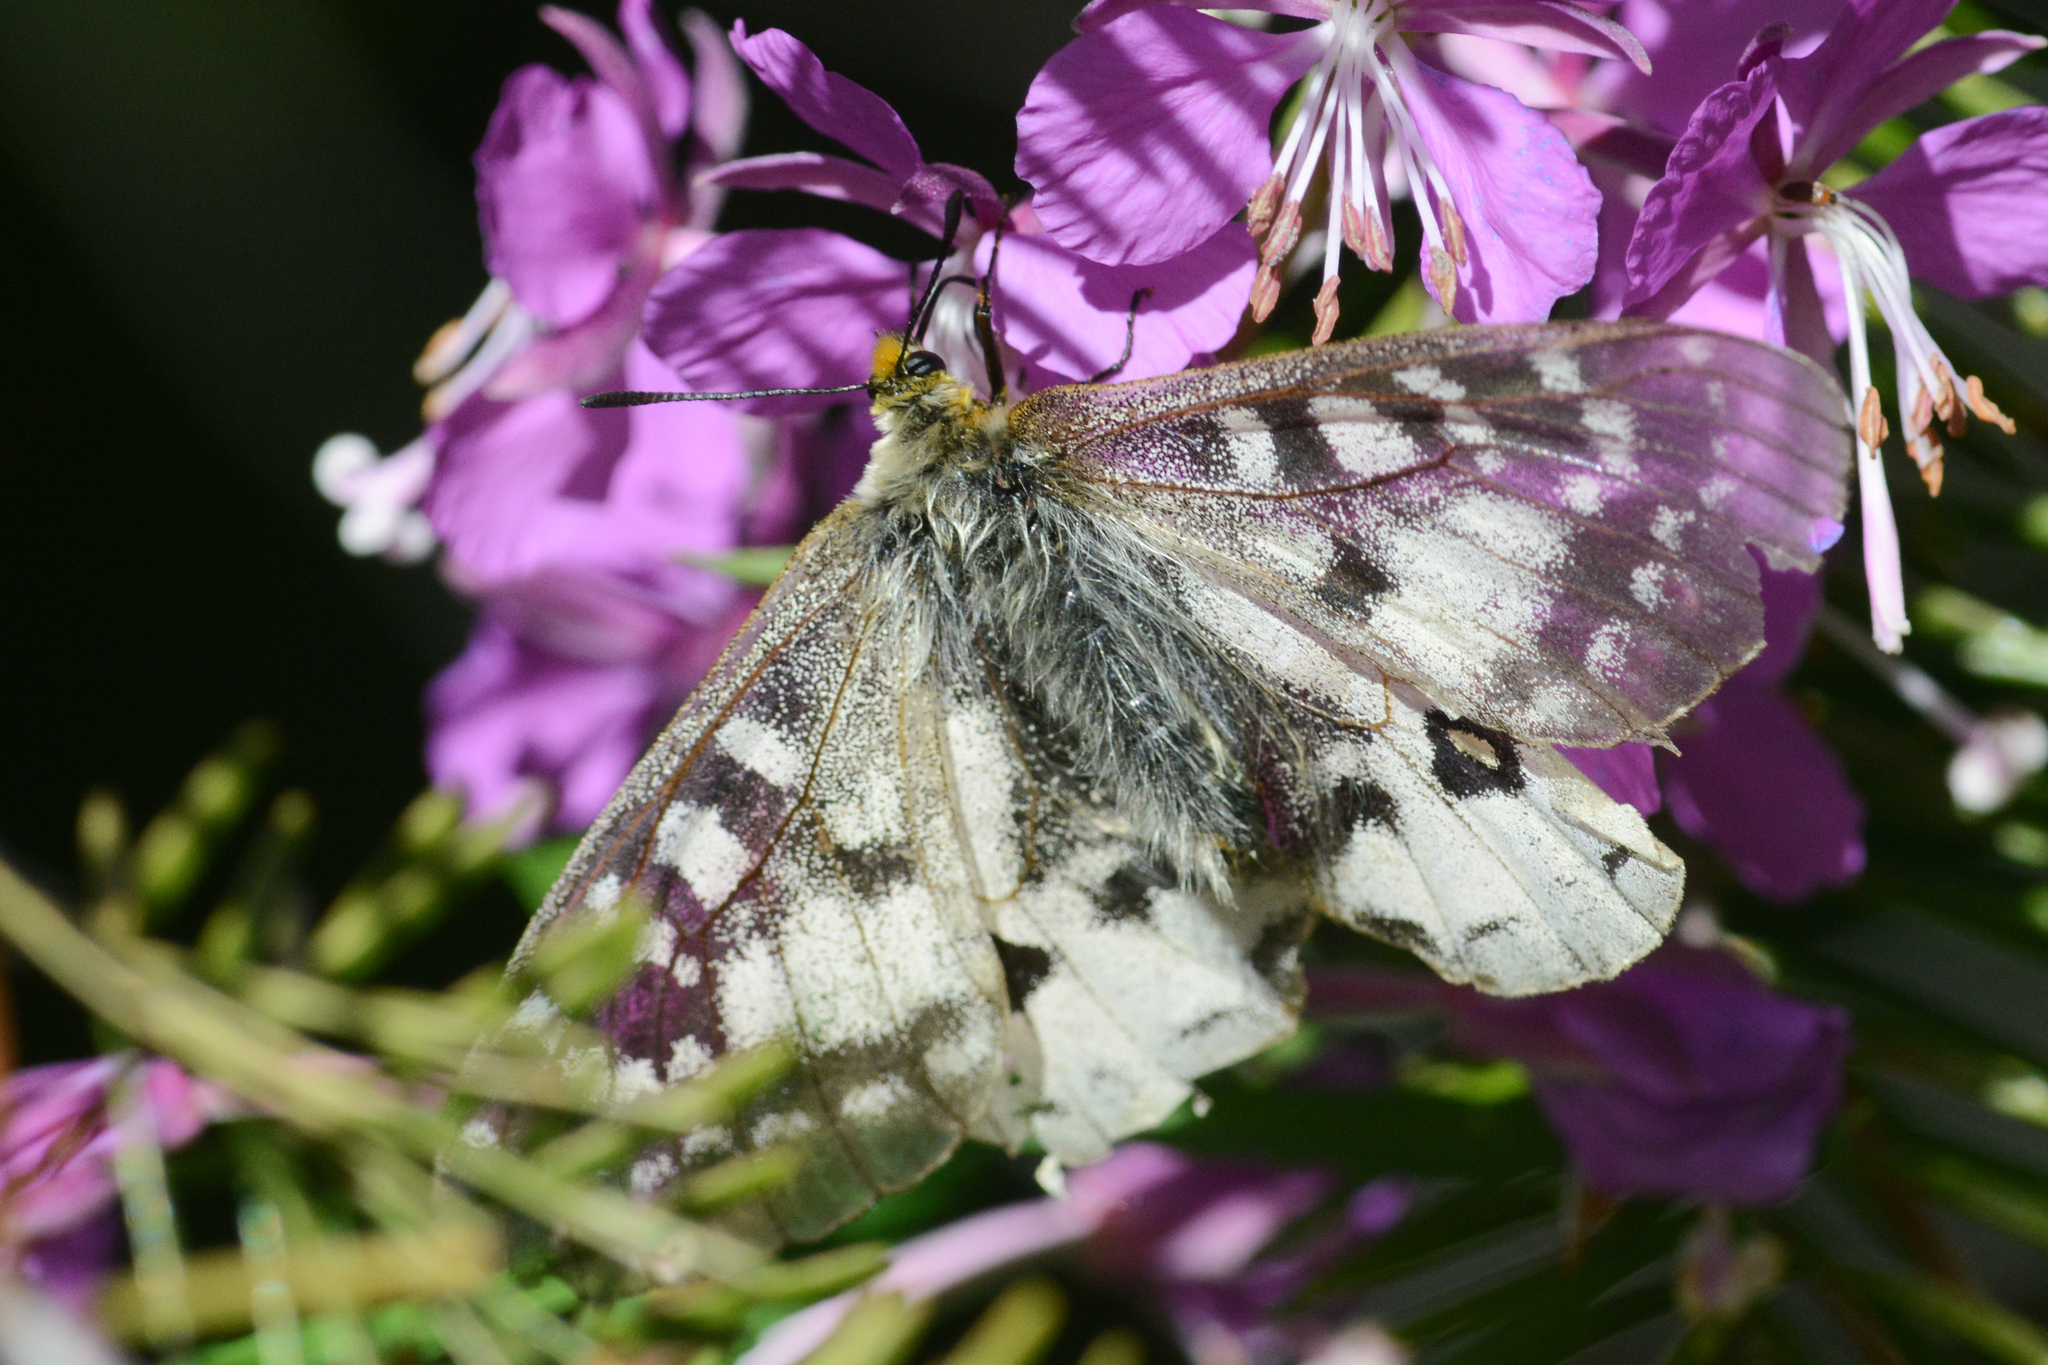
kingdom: Animalia
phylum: Arthropoda
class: Insecta
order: Lepidoptera
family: Papilionidae
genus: Parnassius
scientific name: Parnassius clodius
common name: American apollo
